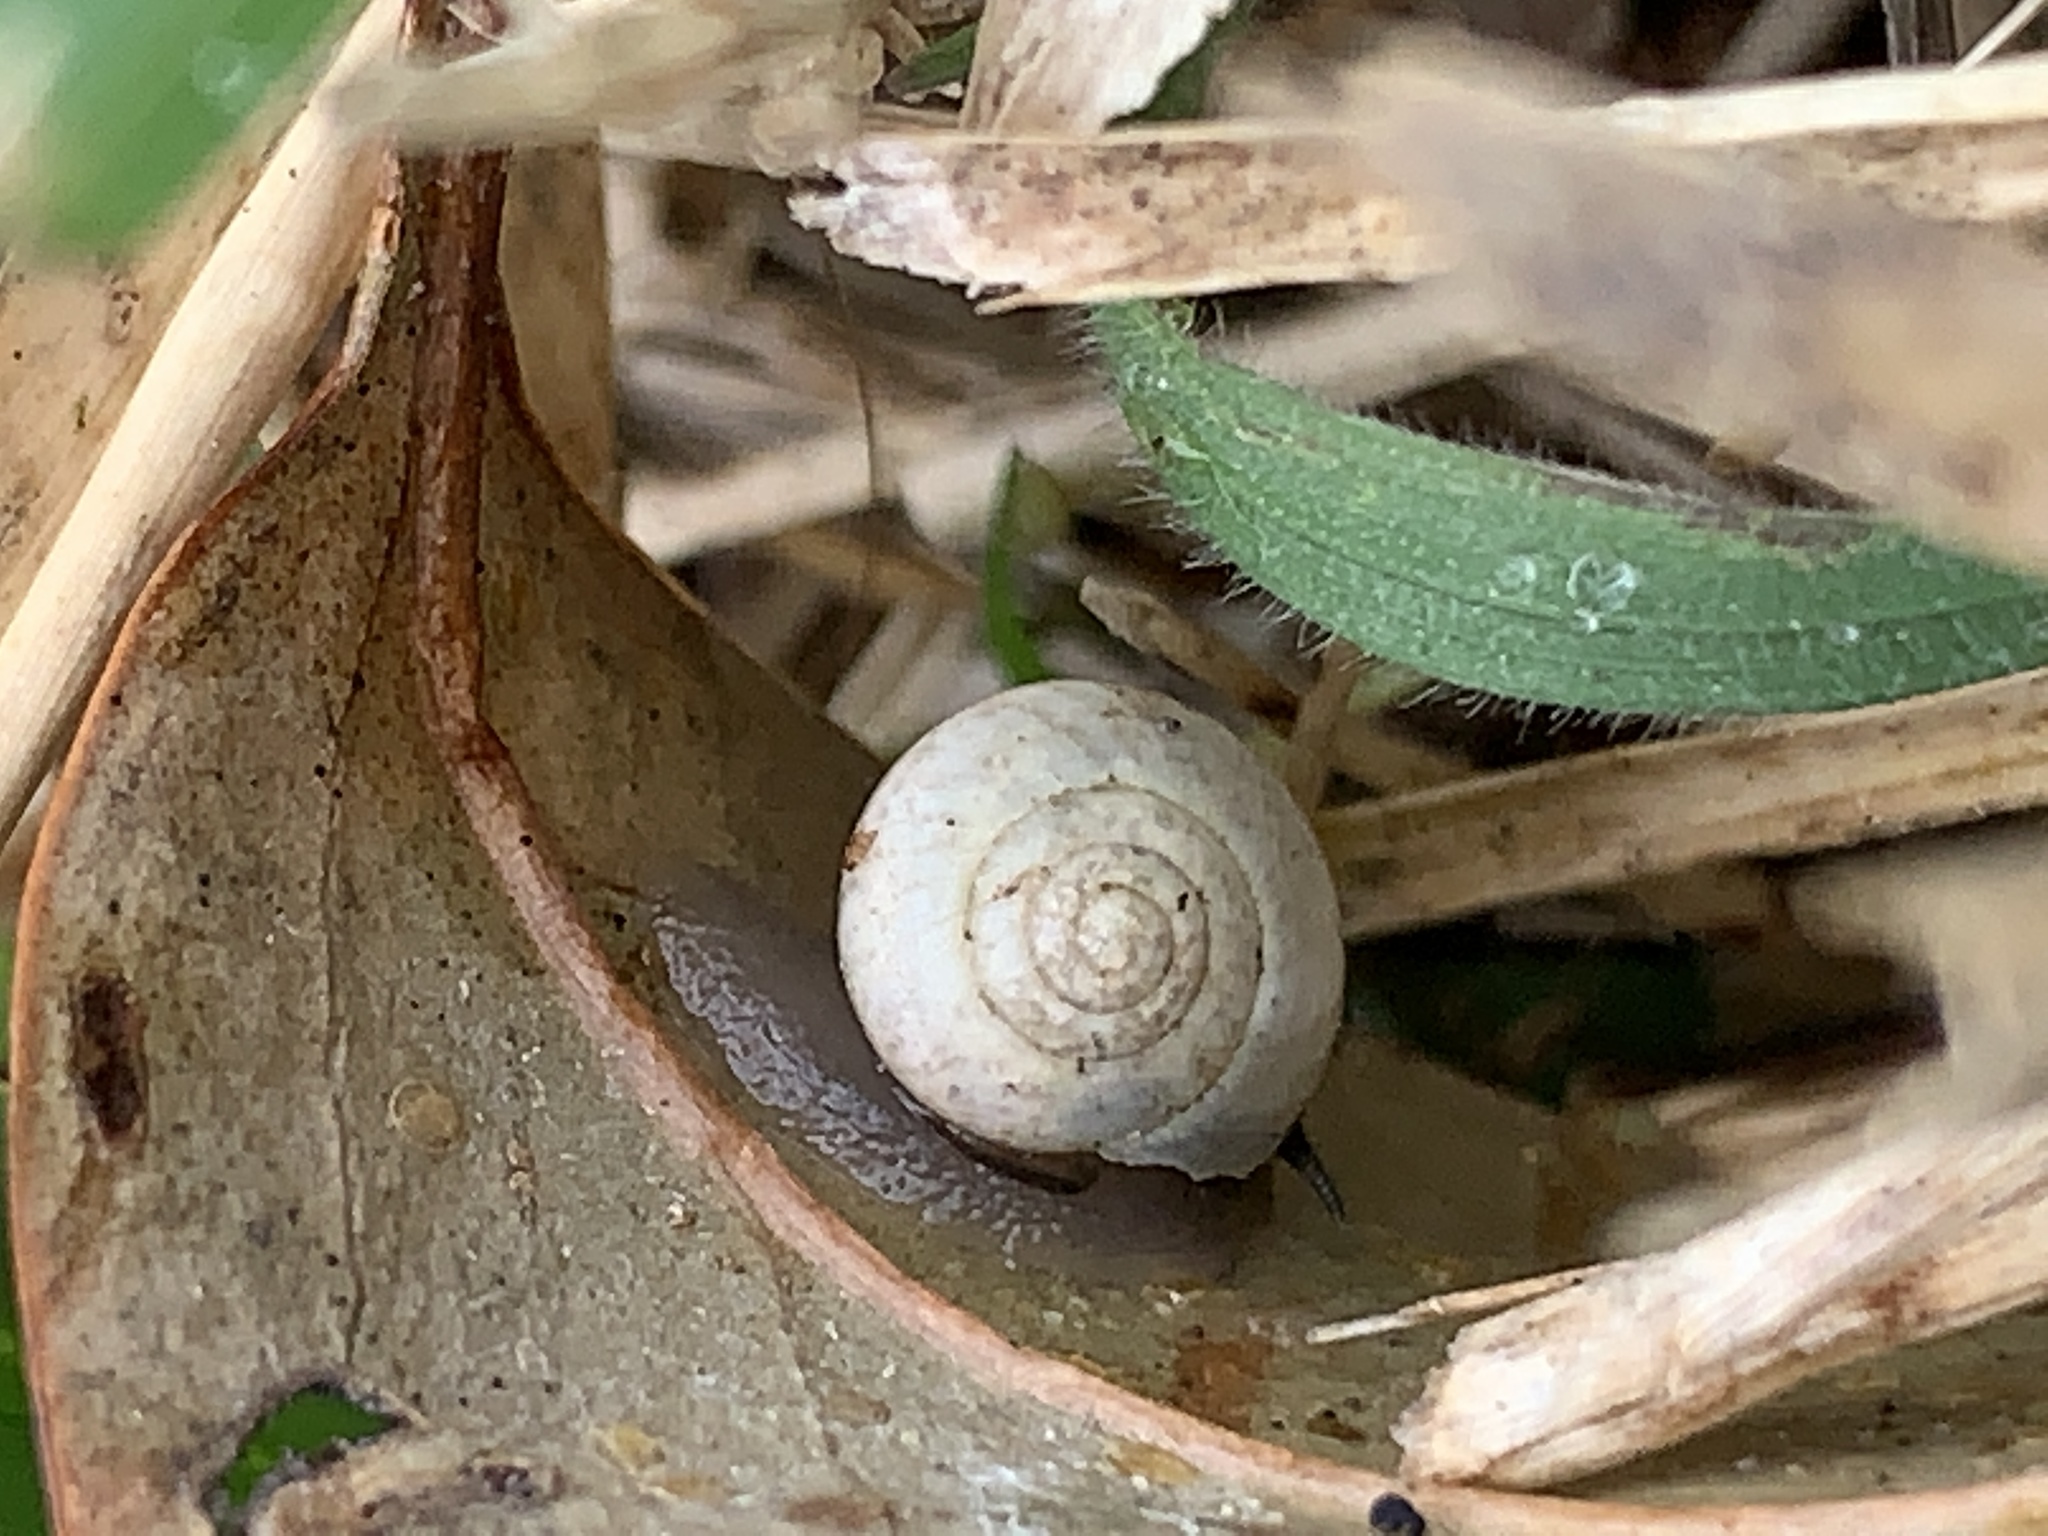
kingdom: Animalia
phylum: Mollusca
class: Gastropoda
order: Cycloneritida
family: Helicinidae
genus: Helicina
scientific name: Helicina orbiculata
